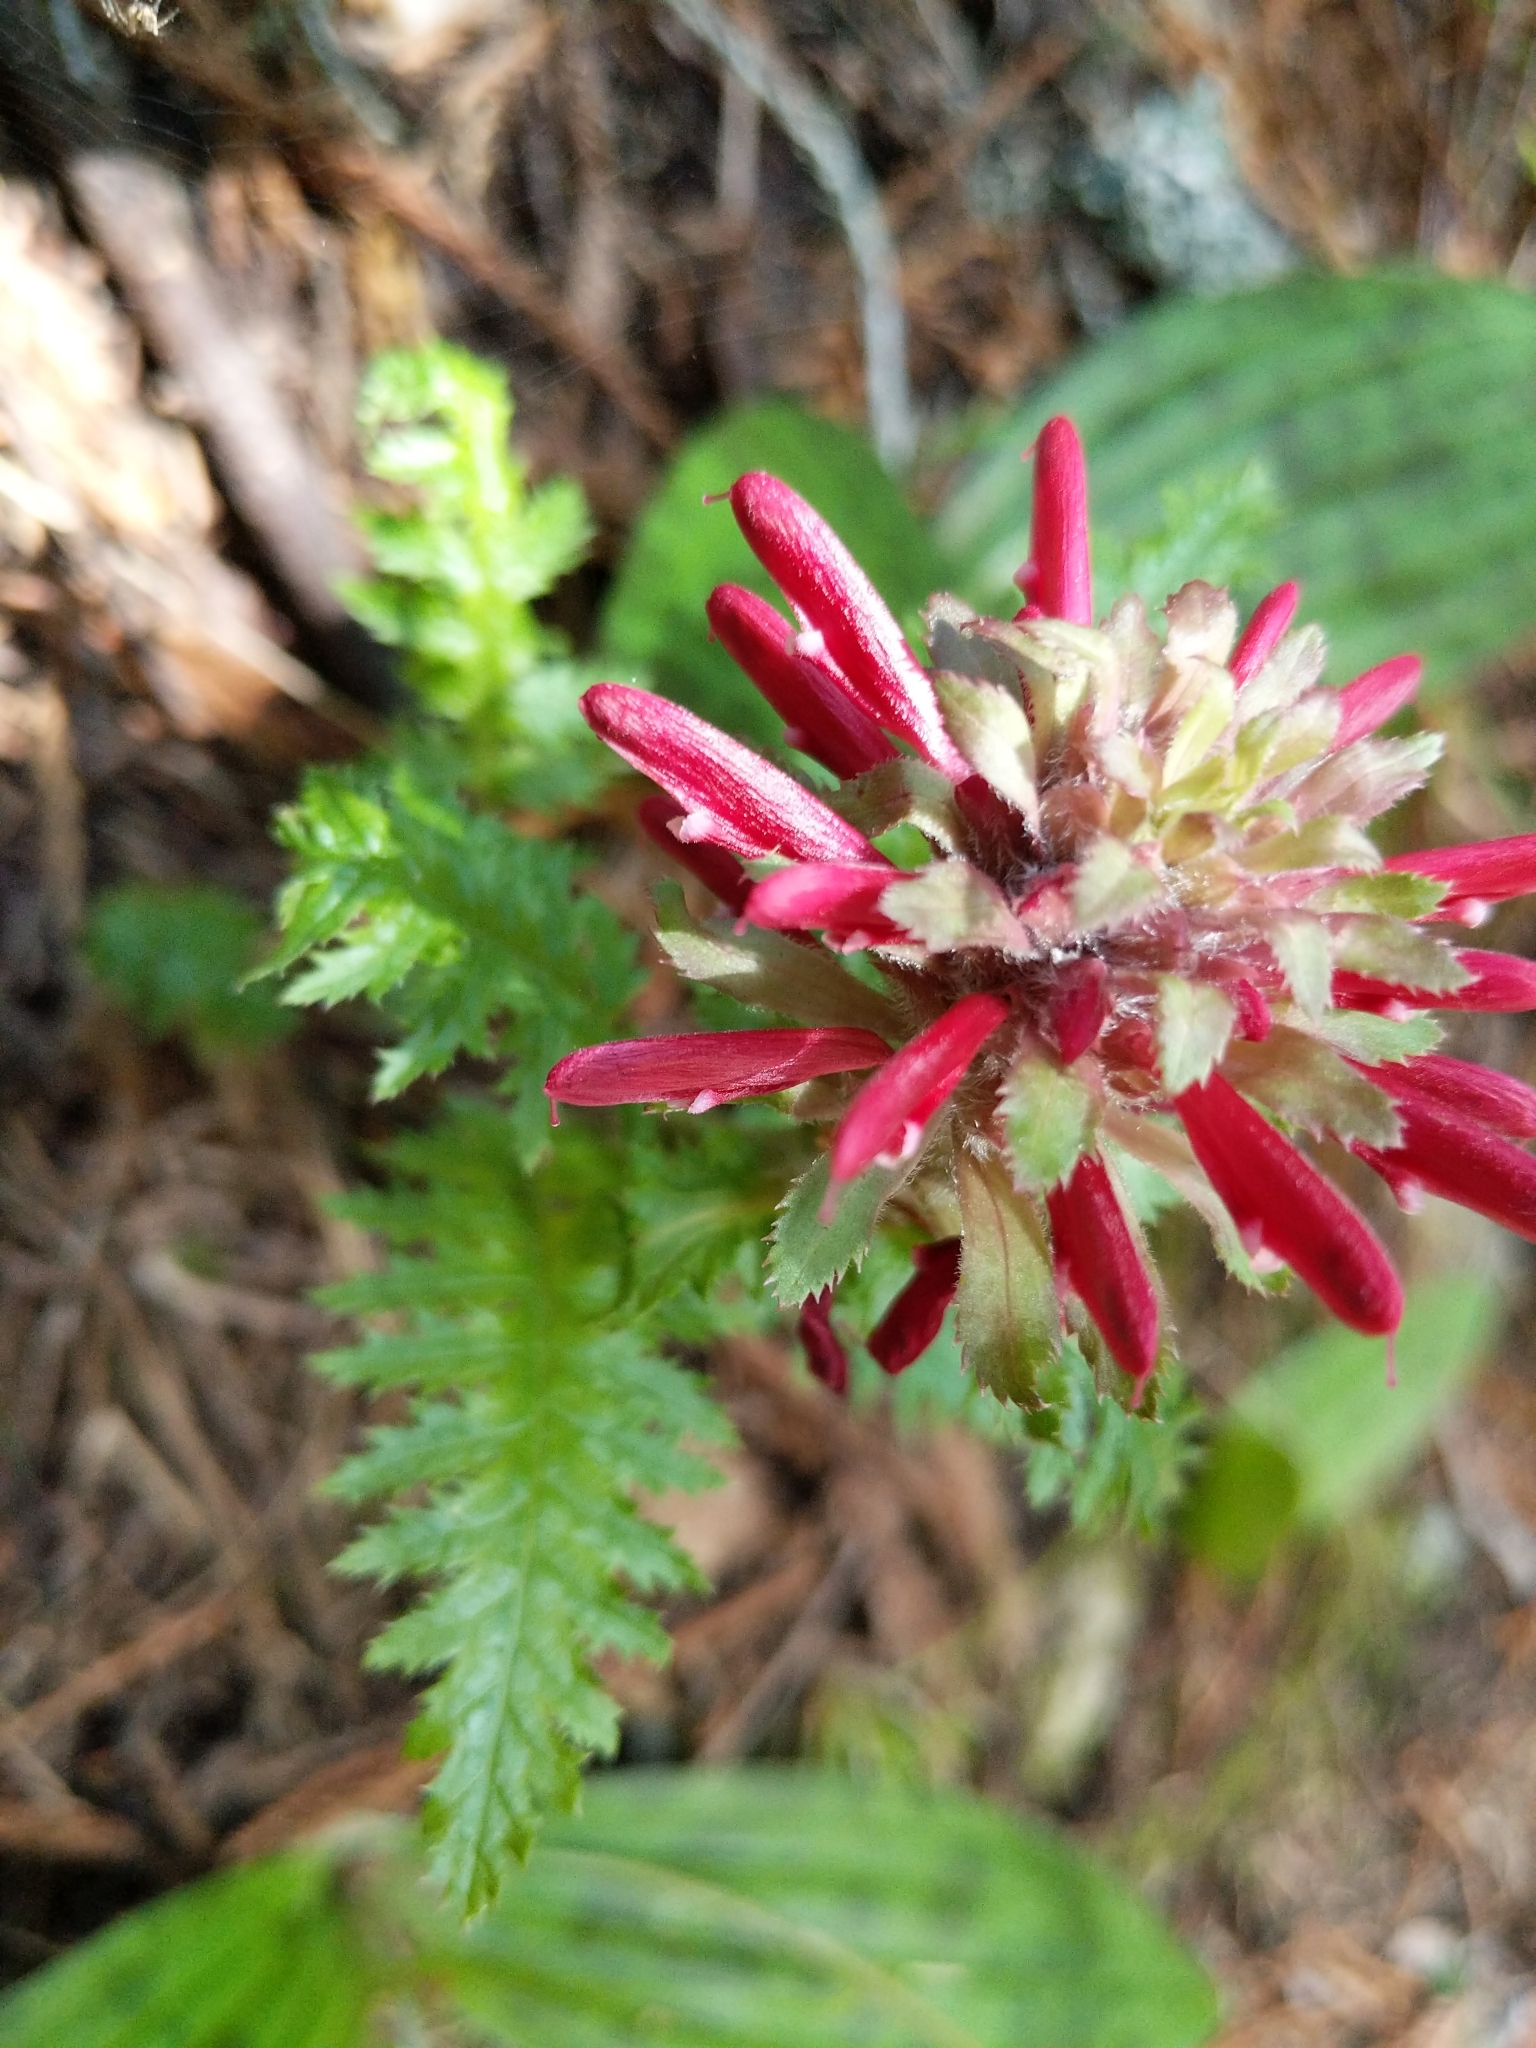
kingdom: Plantae
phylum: Tracheophyta
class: Magnoliopsida
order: Lamiales
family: Orobanchaceae
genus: Pedicularis
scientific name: Pedicularis densiflora
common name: Indian warrior
